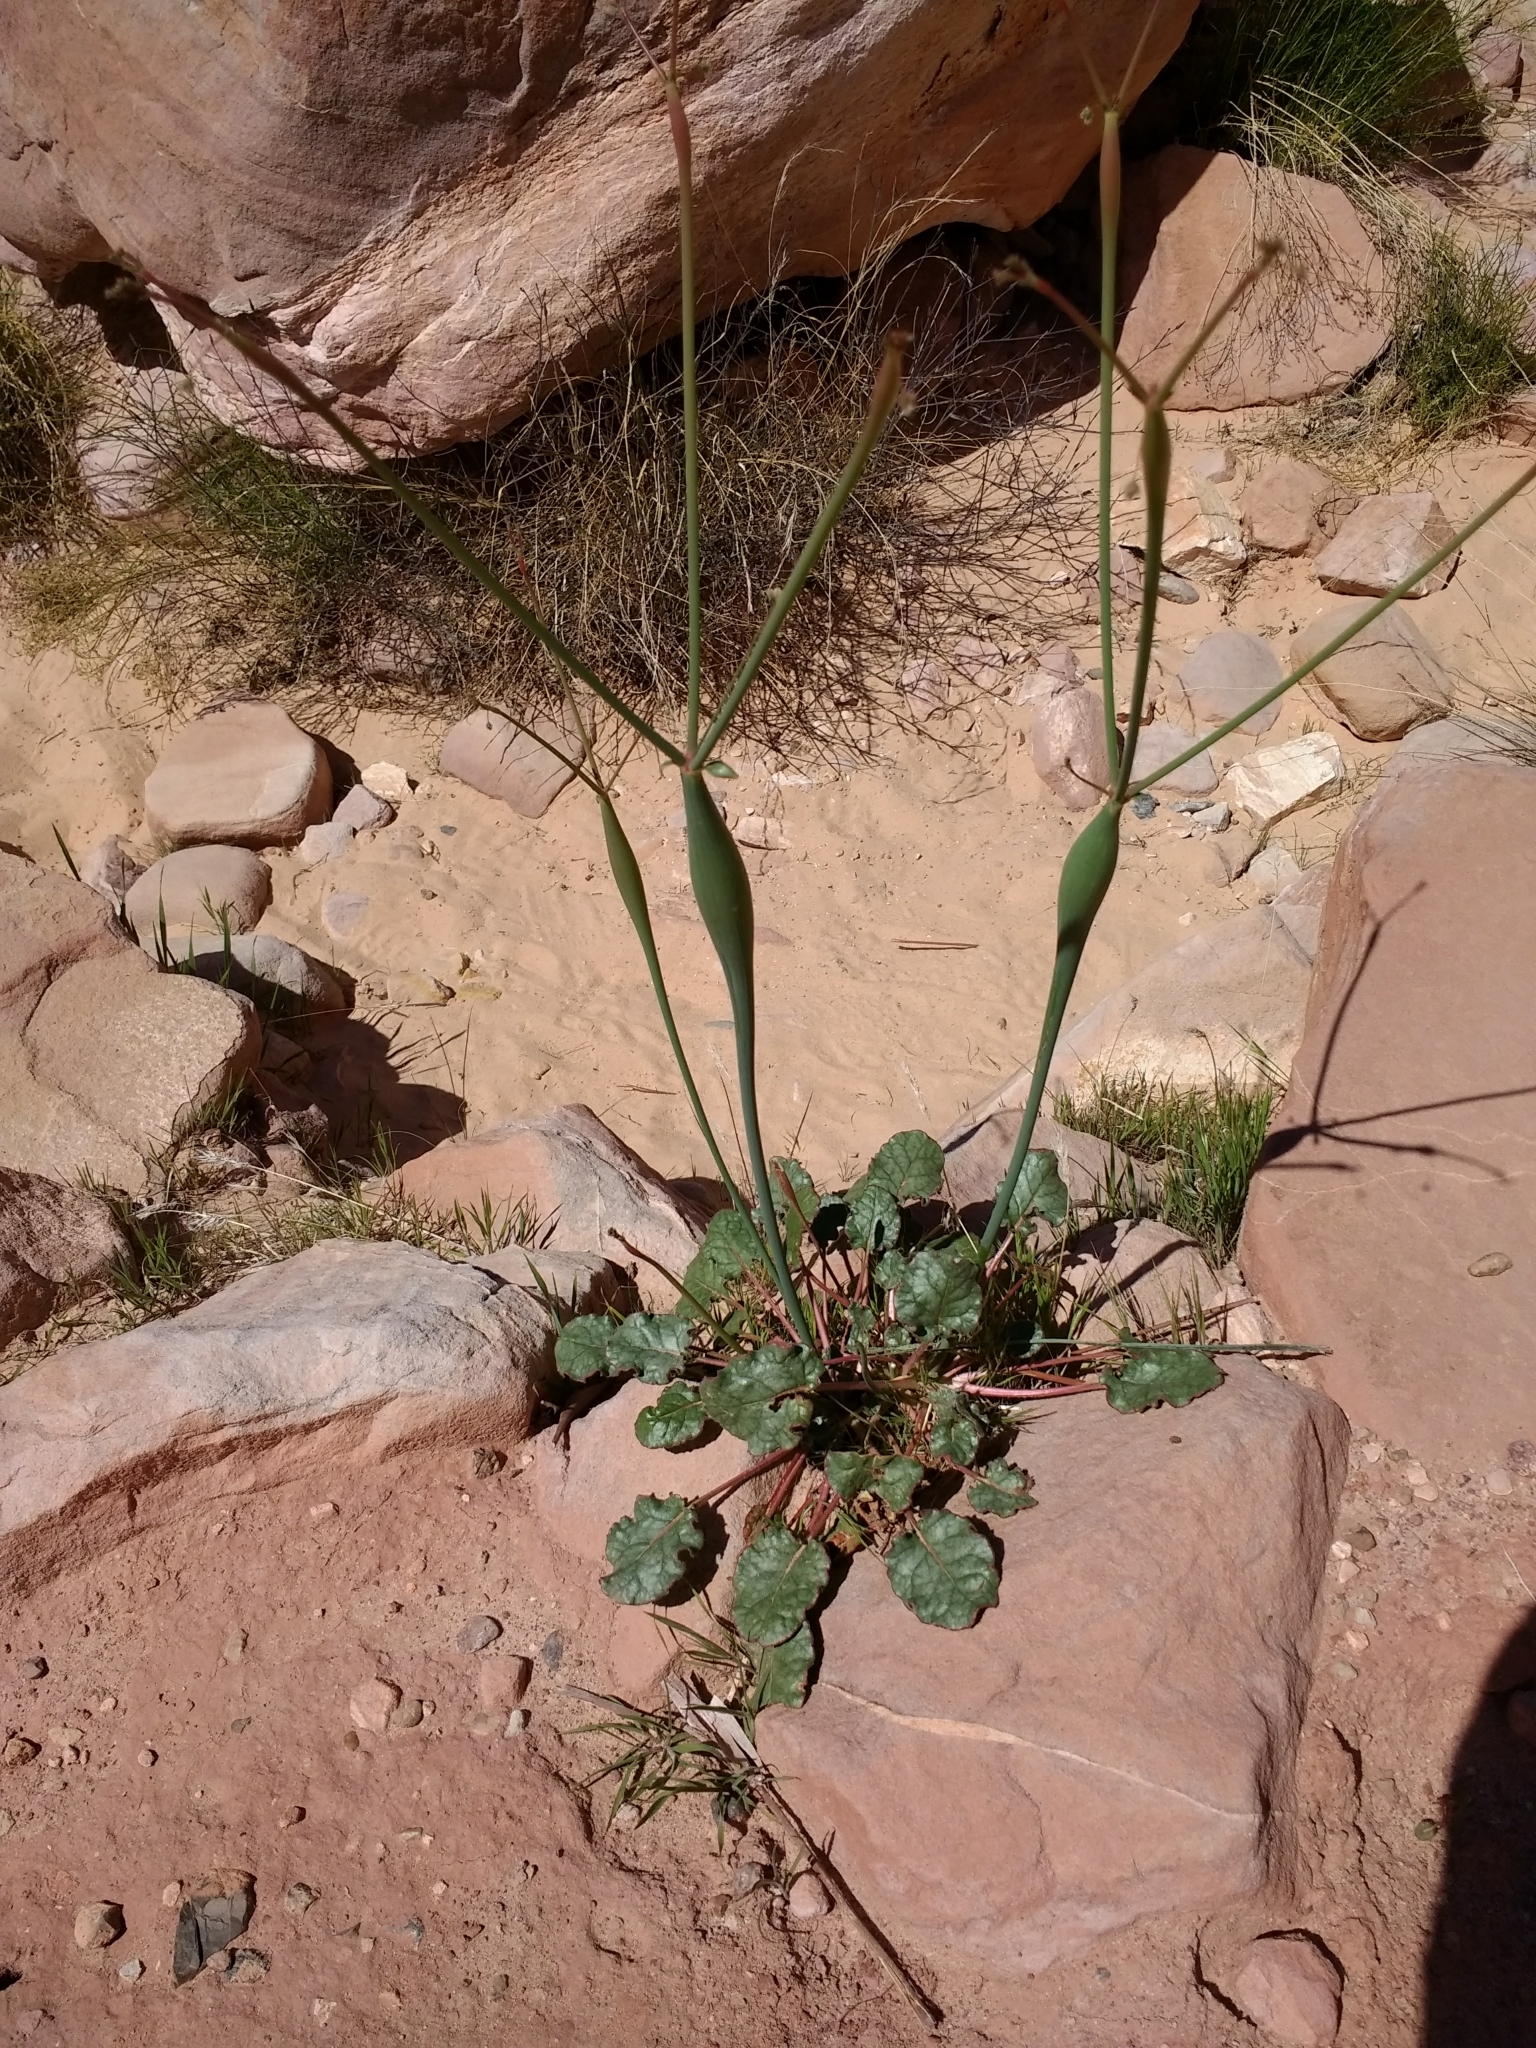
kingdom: Plantae
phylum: Tracheophyta
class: Magnoliopsida
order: Caryophyllales
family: Polygonaceae
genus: Eriogonum
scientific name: Eriogonum inflatum
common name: Desert trumpet
